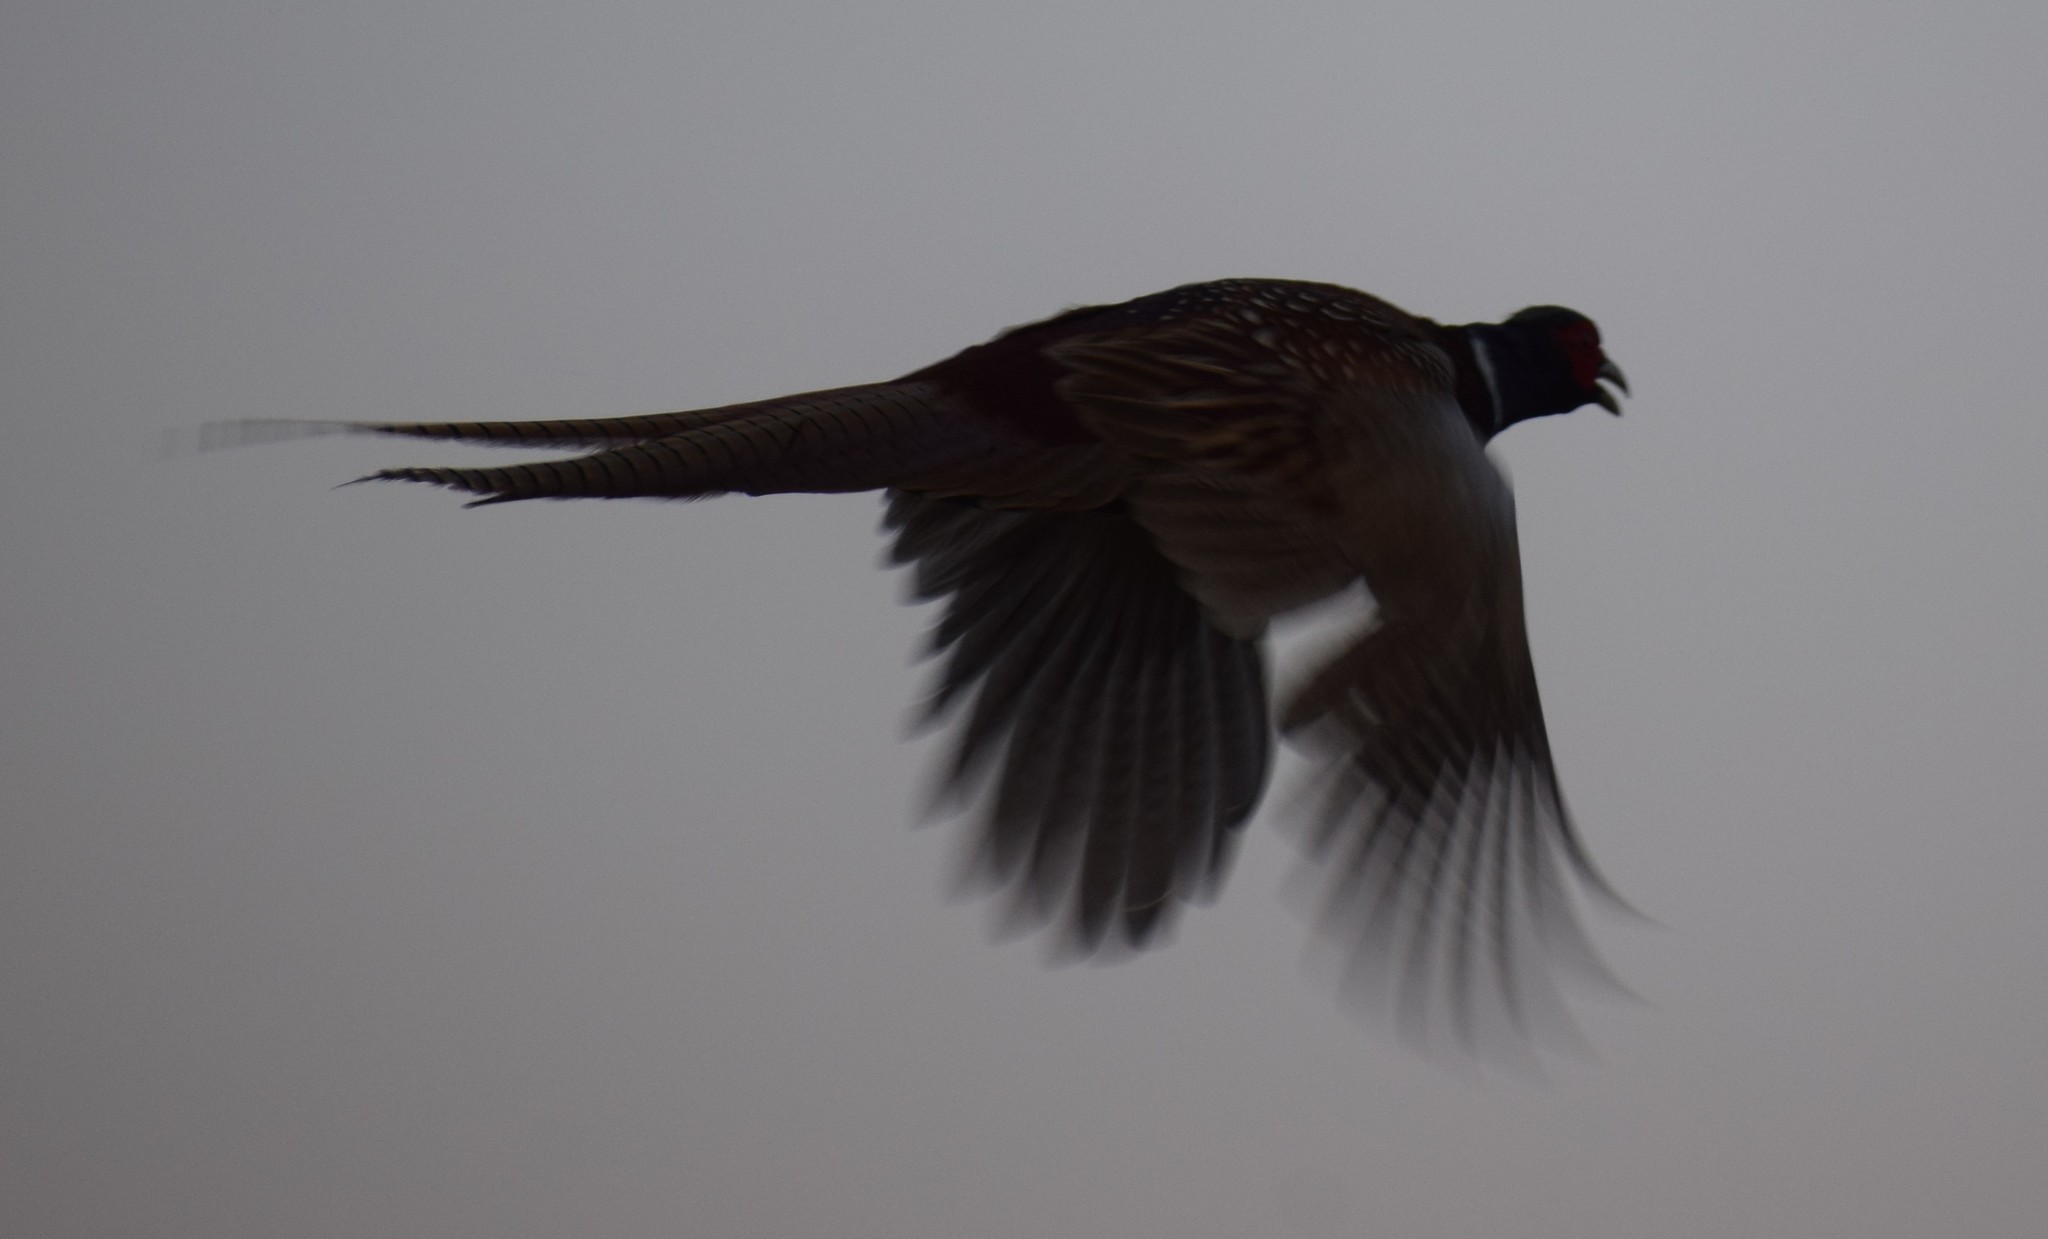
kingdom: Animalia
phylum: Chordata
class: Aves
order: Galliformes
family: Phasianidae
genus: Phasianus
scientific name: Phasianus colchicus
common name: Common pheasant
